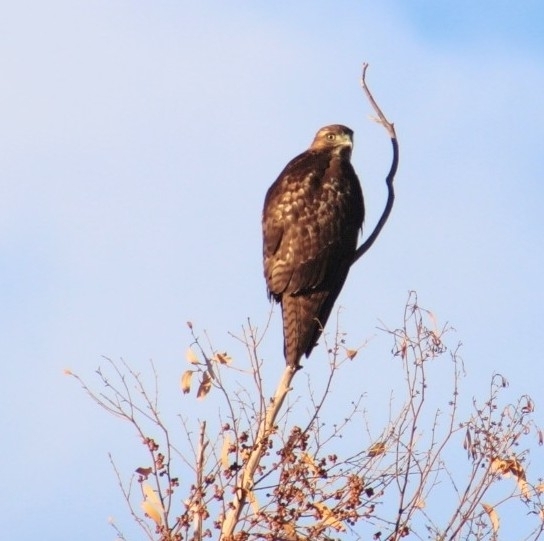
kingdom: Animalia
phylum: Chordata
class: Aves
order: Accipitriformes
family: Accipitridae
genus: Buteo
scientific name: Buteo jamaicensis
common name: Red-tailed hawk
